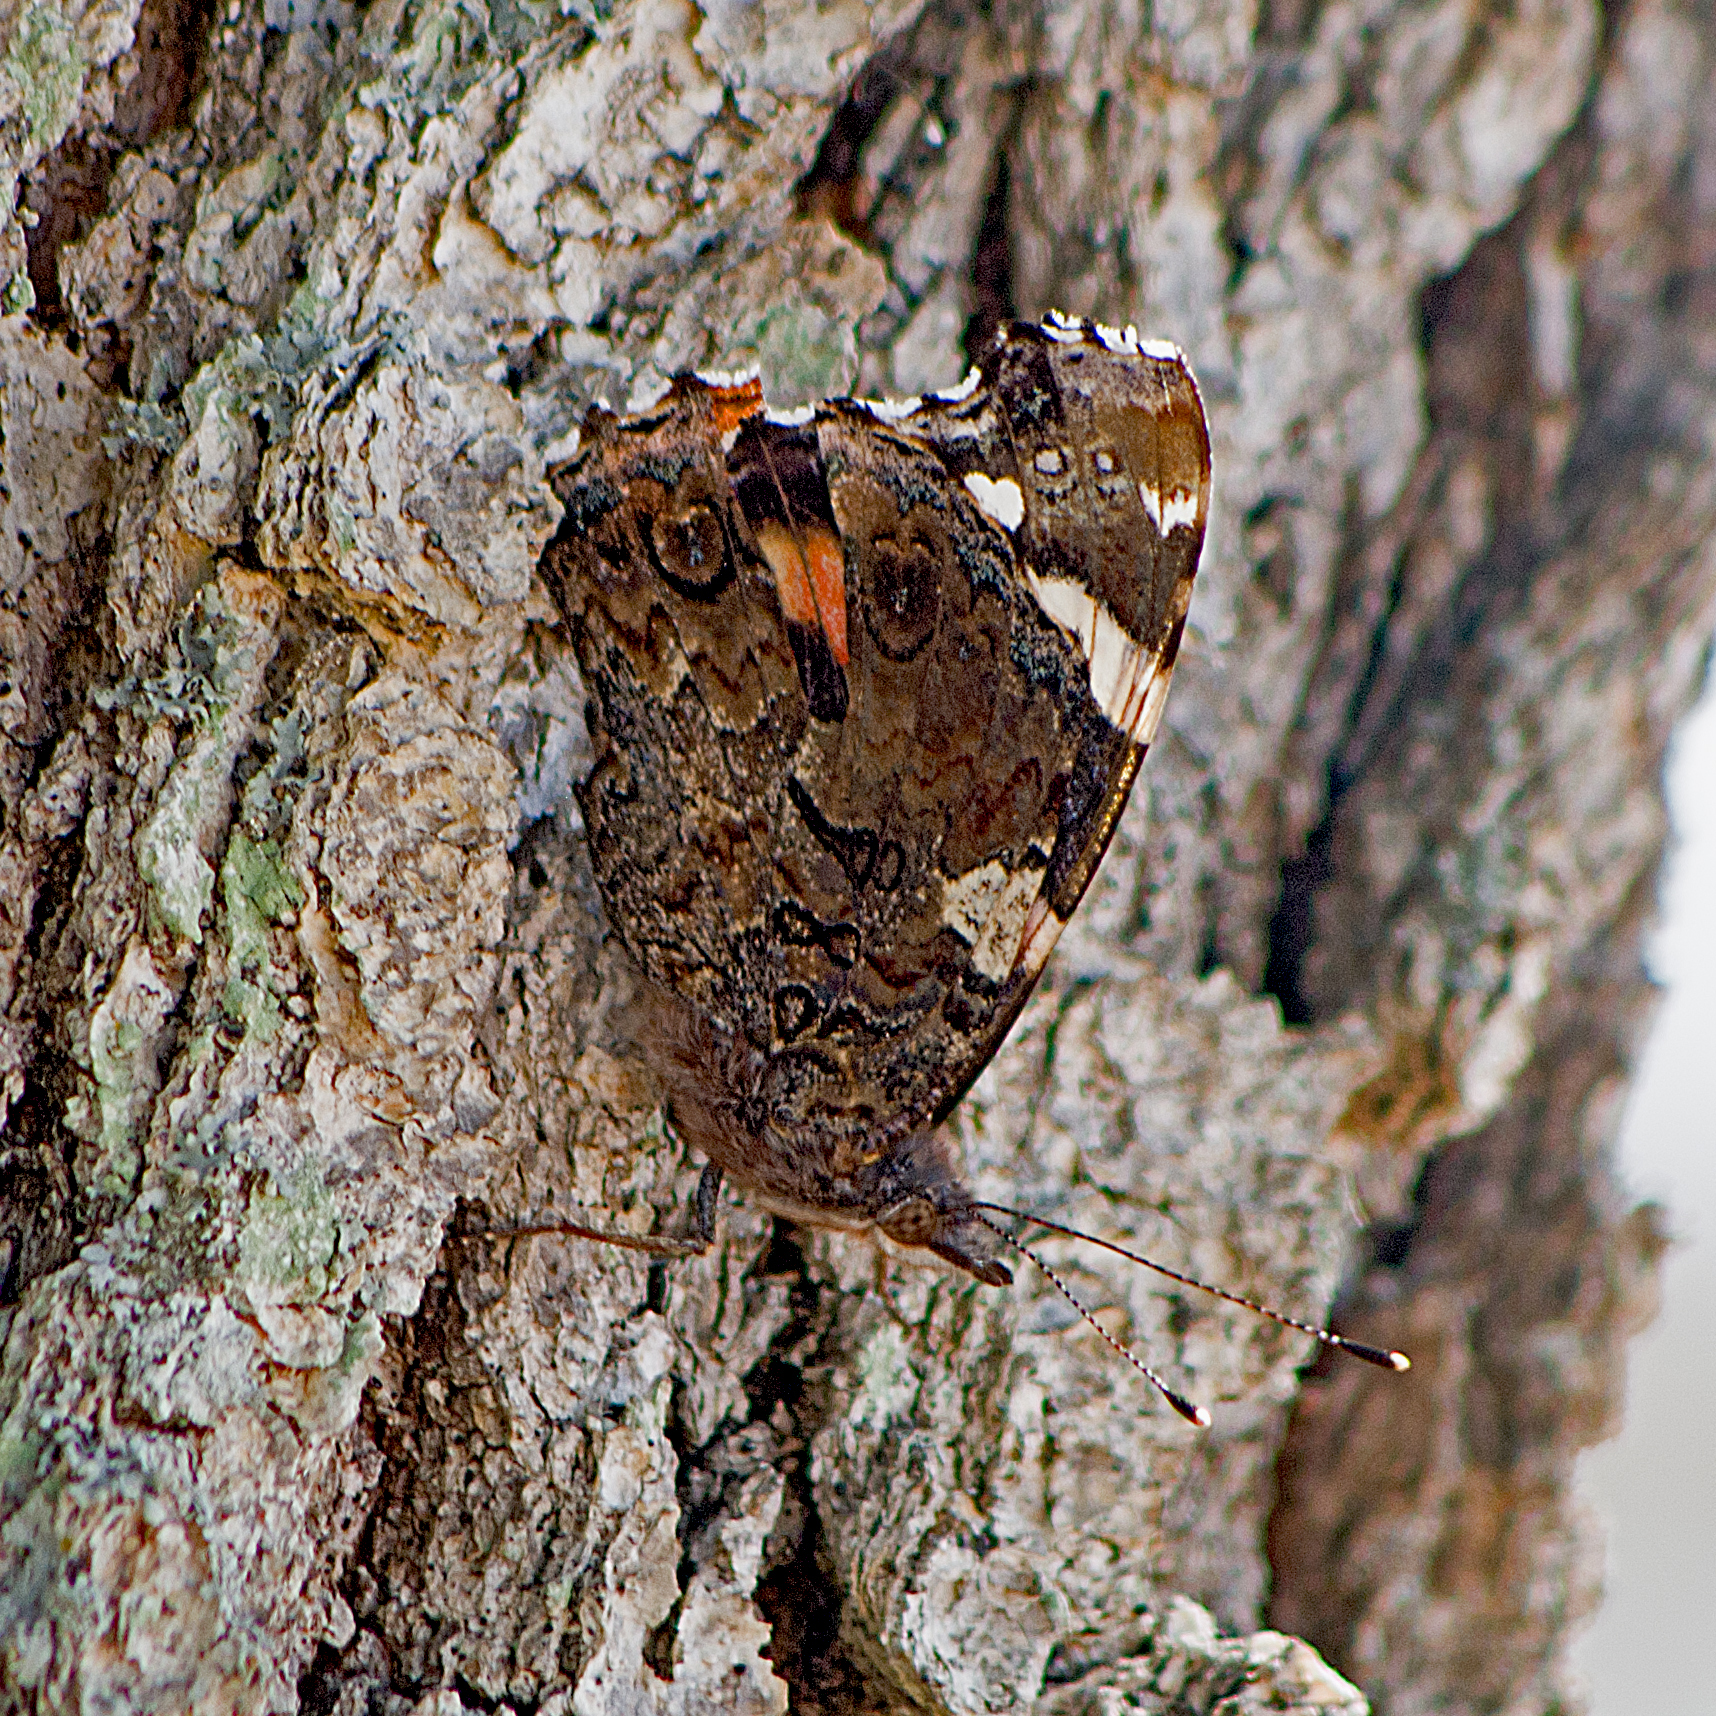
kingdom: Animalia
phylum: Arthropoda
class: Insecta
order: Lepidoptera
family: Nymphalidae
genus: Vanessa
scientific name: Vanessa atalanta
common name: Red admiral
